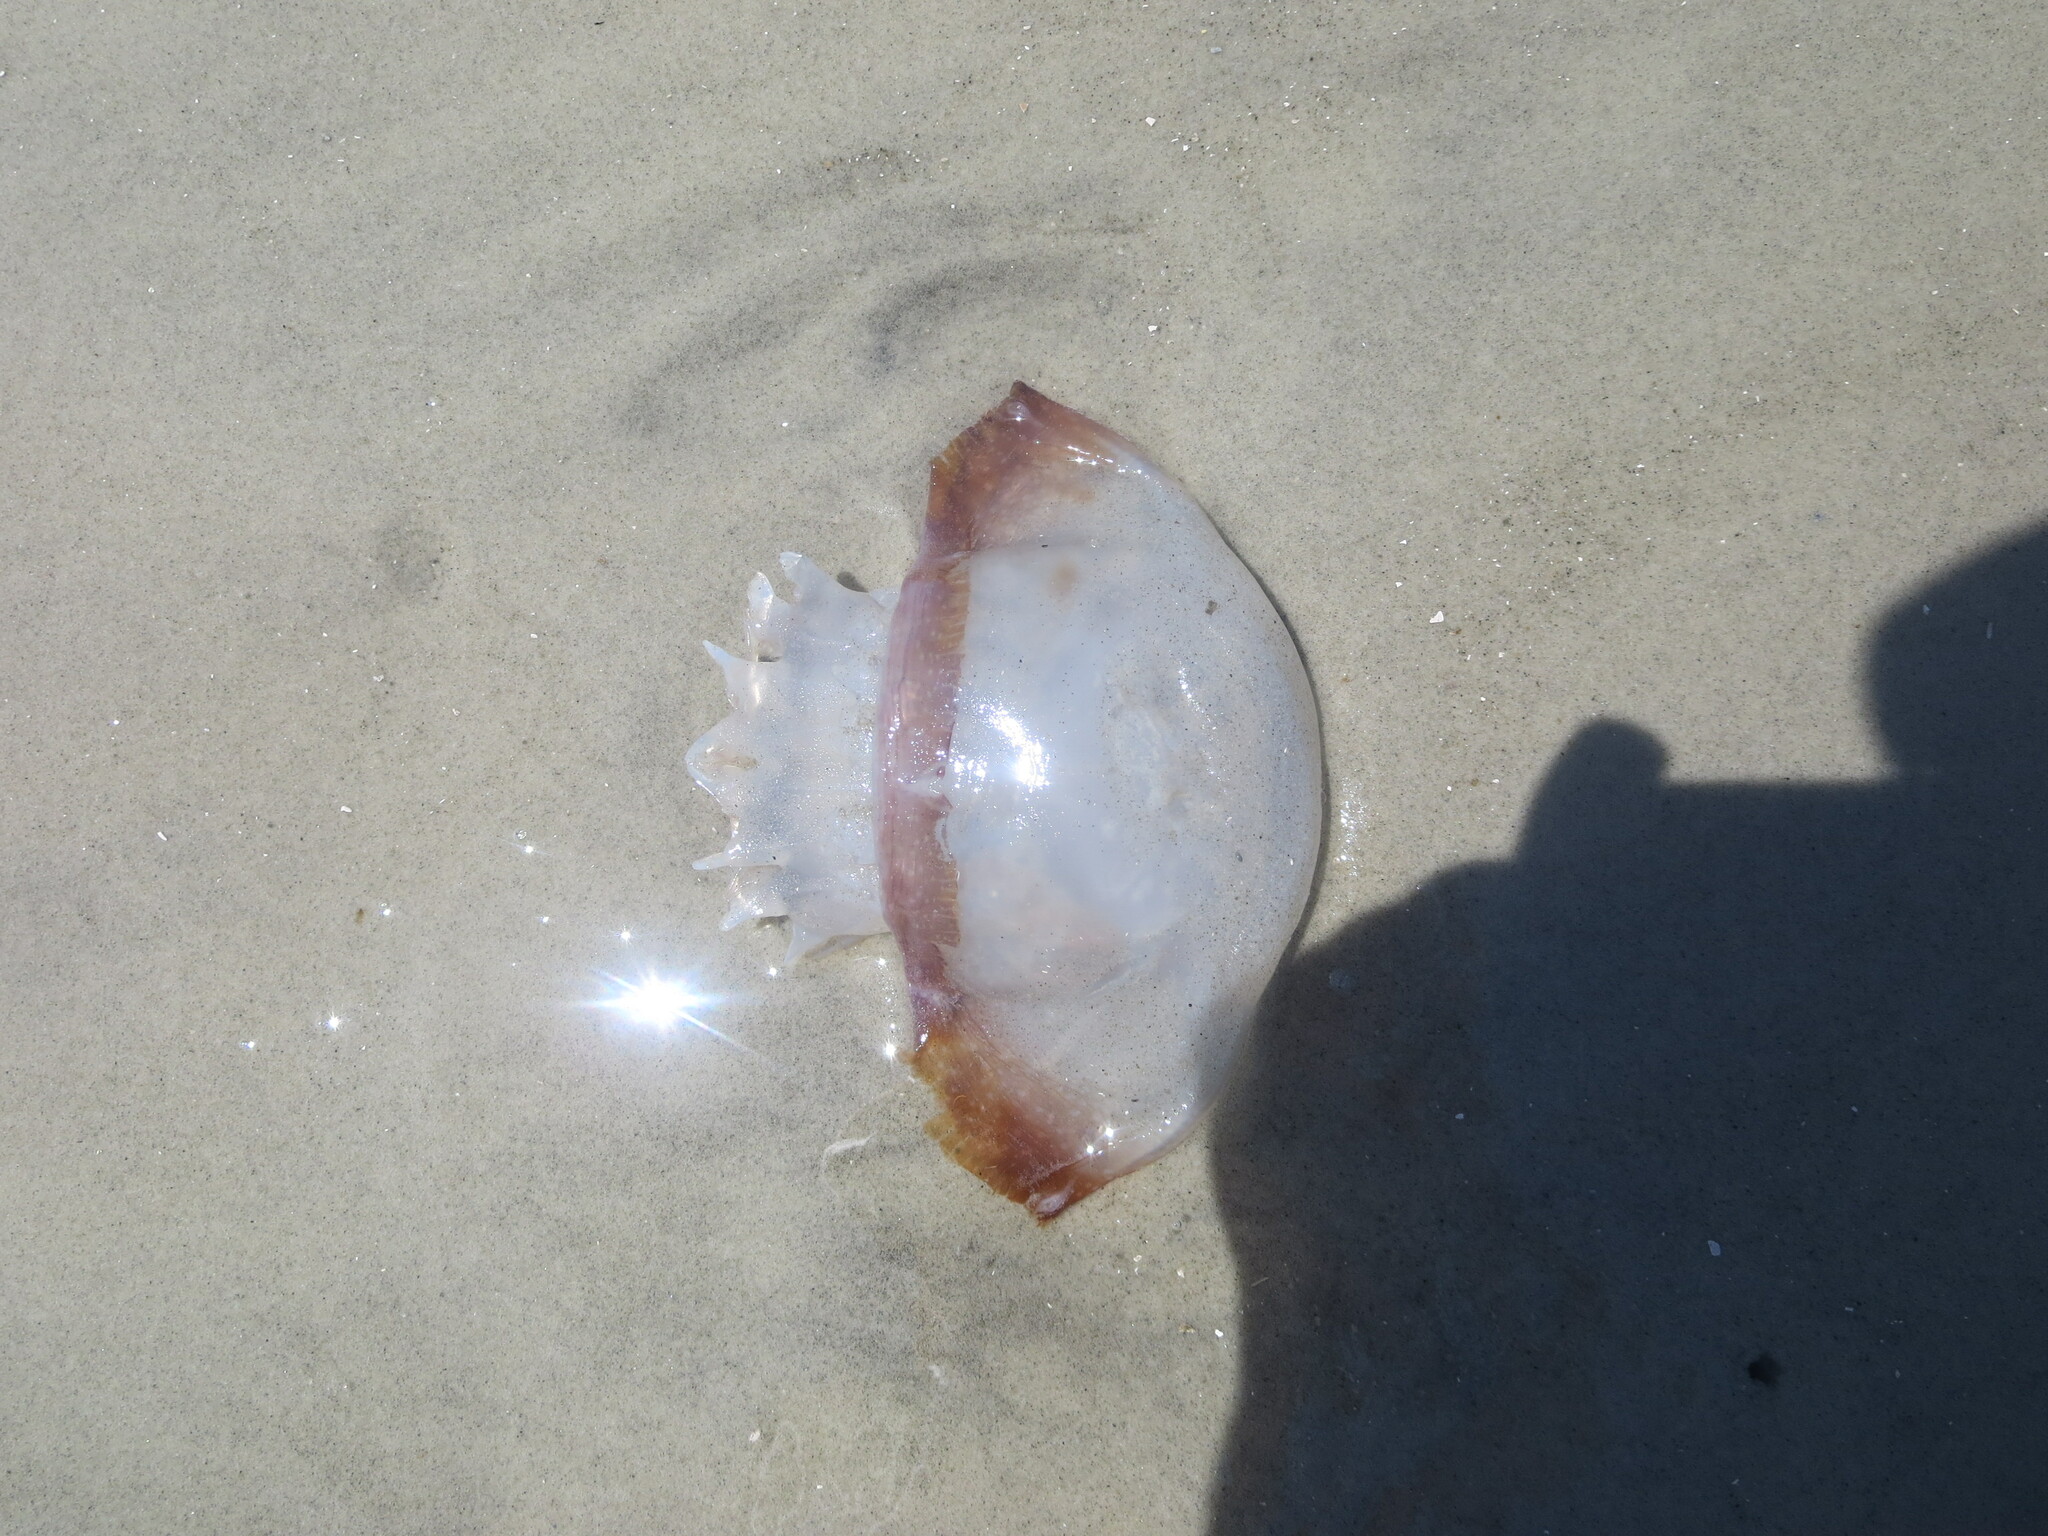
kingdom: Animalia
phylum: Cnidaria
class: Scyphozoa
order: Rhizostomeae
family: Stomolophidae
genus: Stomolophus
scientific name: Stomolophus meleagris
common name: Cabbagehead
